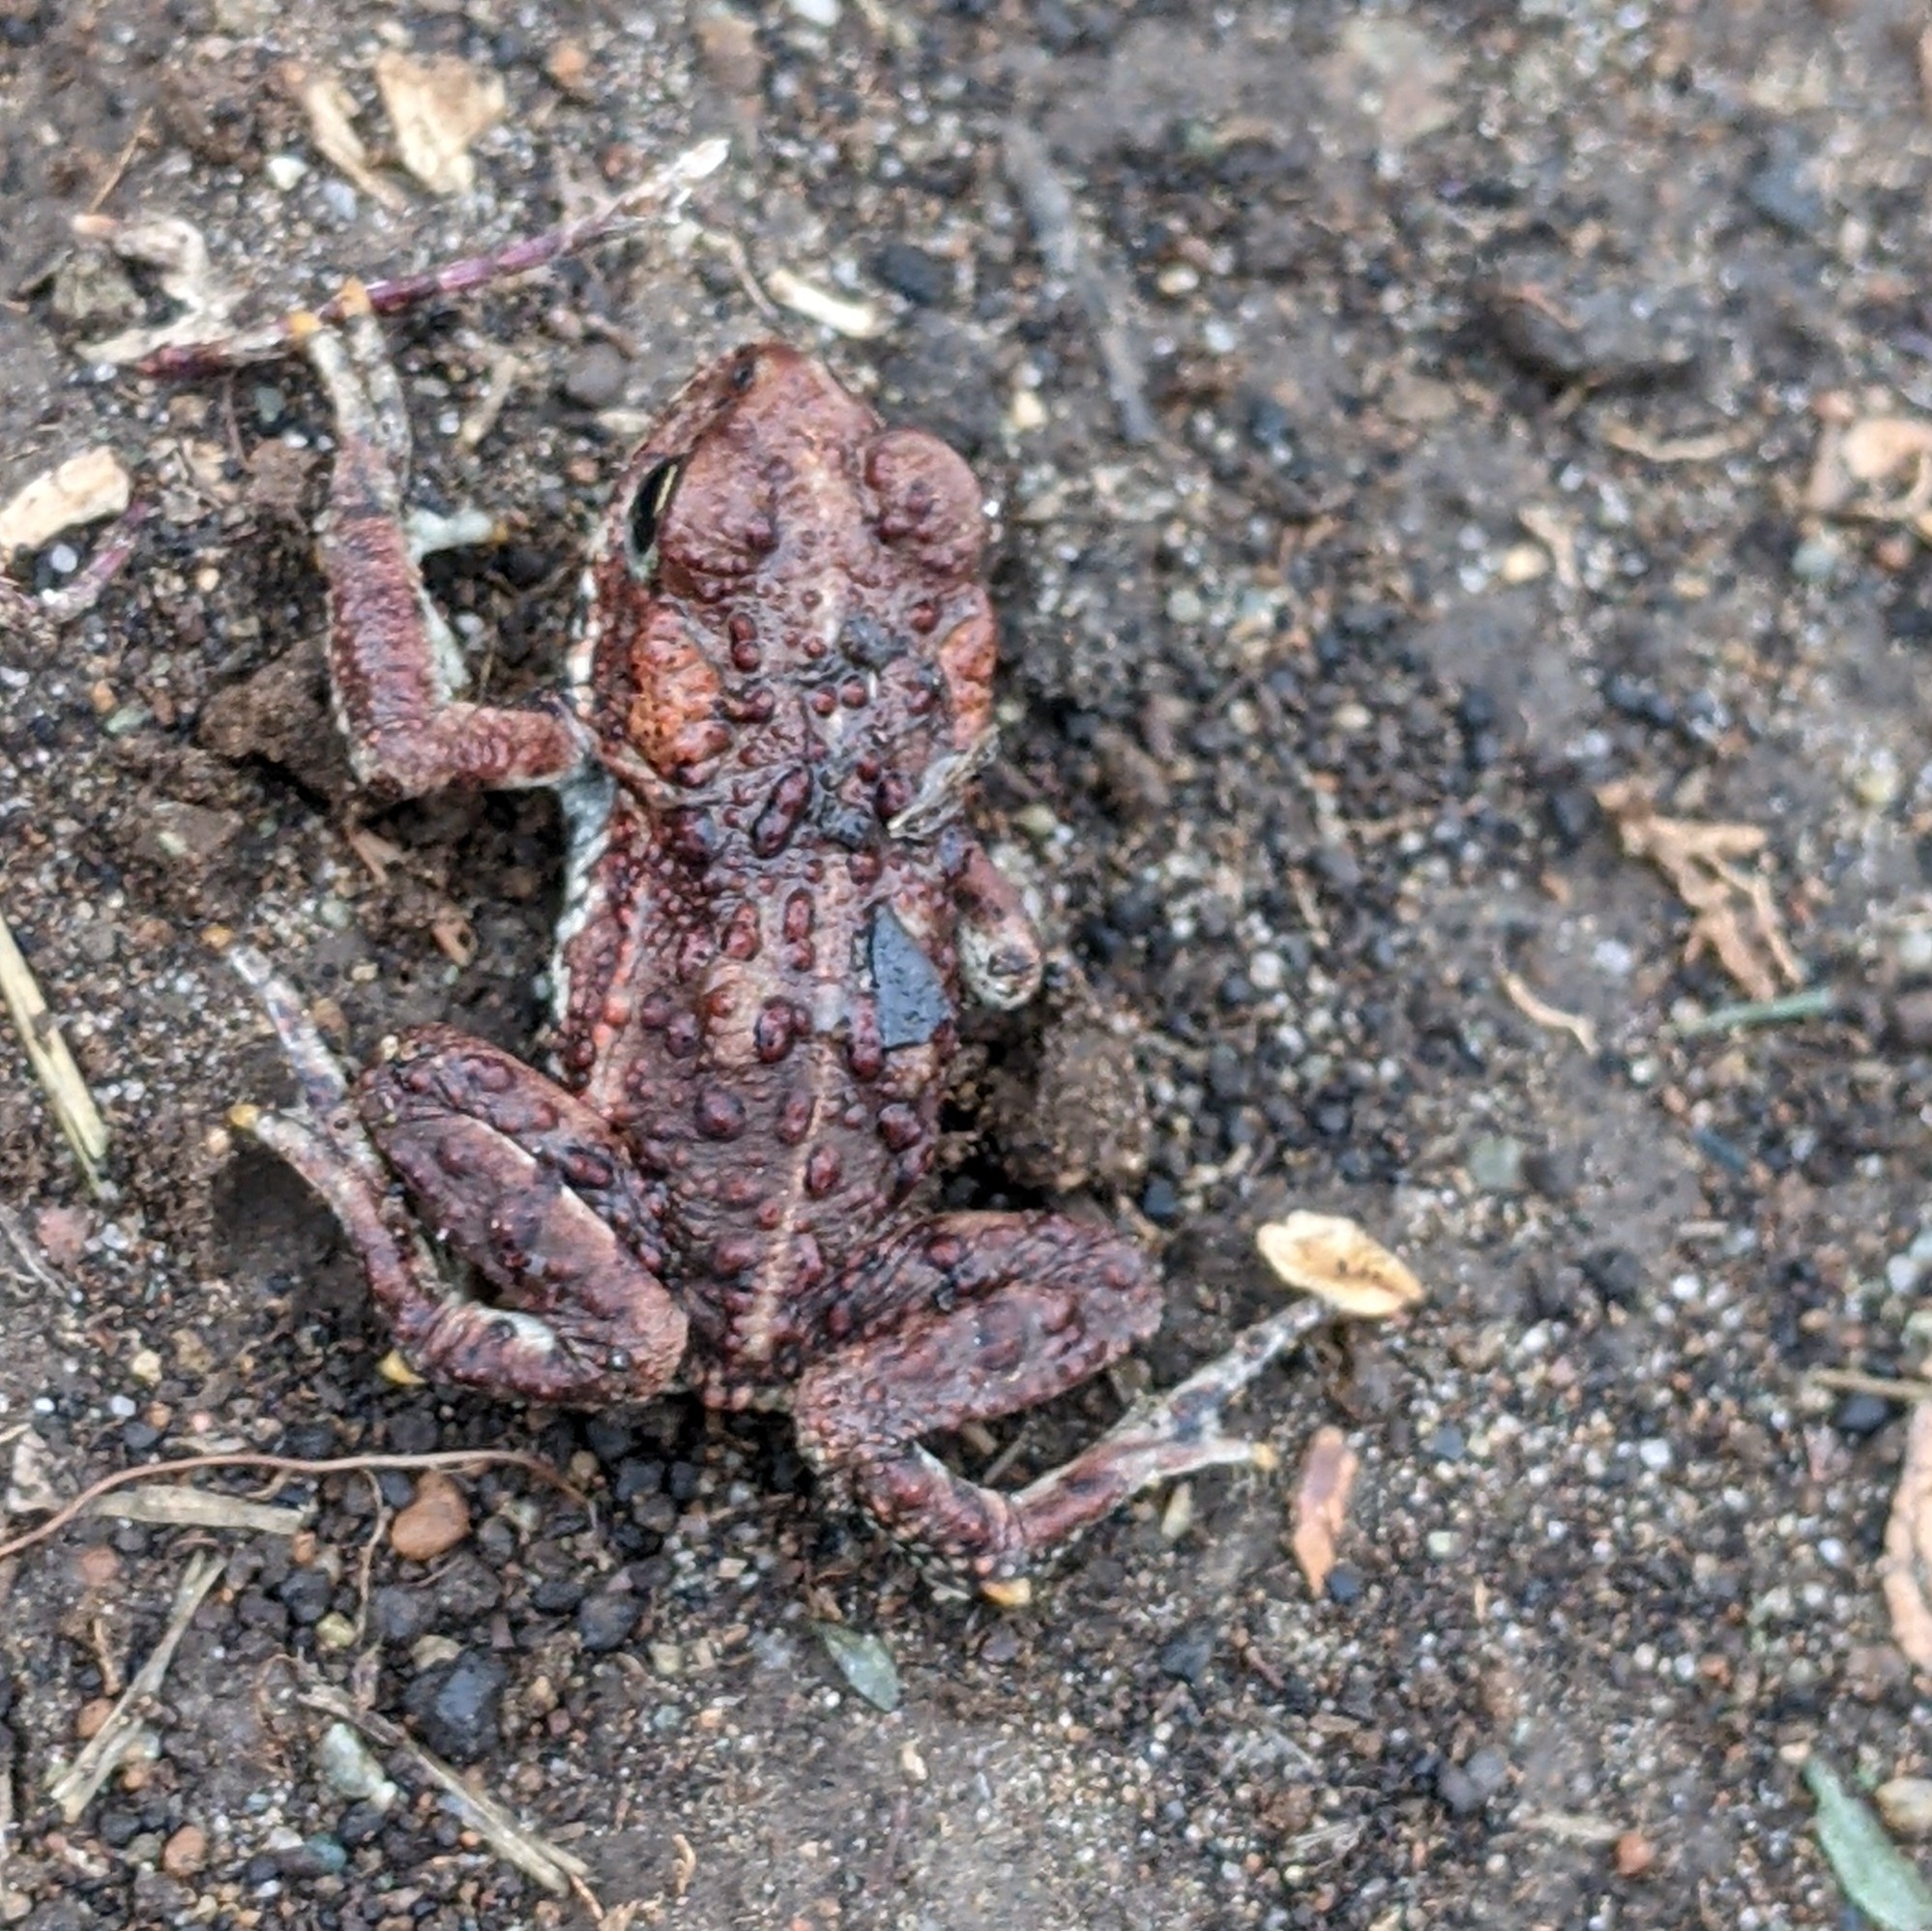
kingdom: Animalia
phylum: Chordata
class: Amphibia
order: Anura
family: Bufonidae
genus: Anaxyrus
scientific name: Anaxyrus boreas
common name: Western toad
